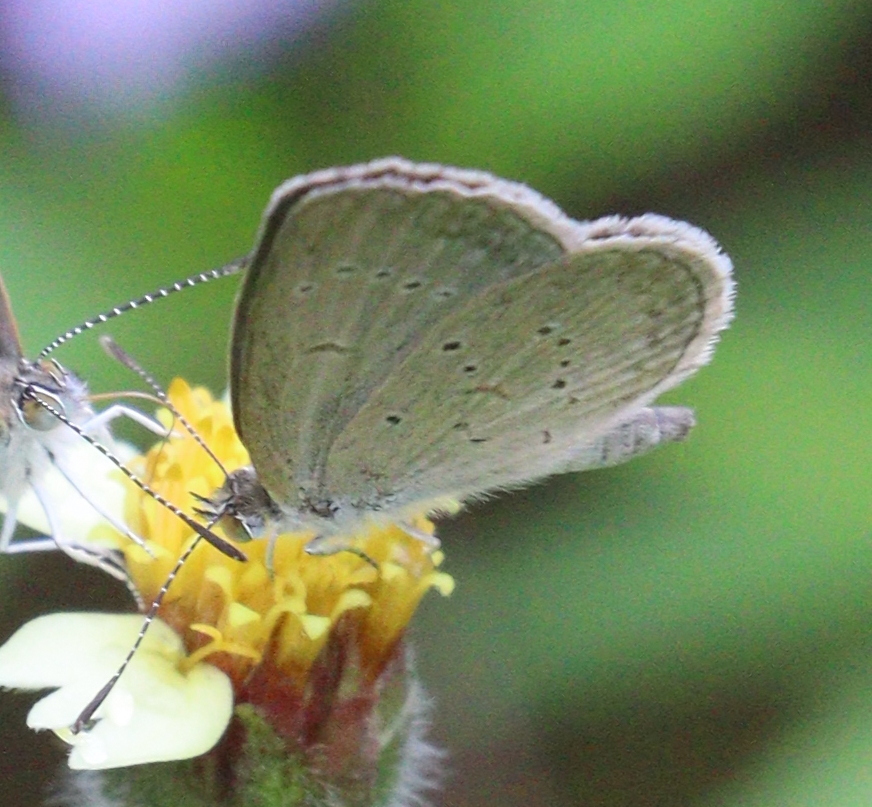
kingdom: Animalia
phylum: Arthropoda
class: Insecta
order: Lepidoptera
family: Lycaenidae
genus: Zizina
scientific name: Zizina otis
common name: Lesser grass blue
